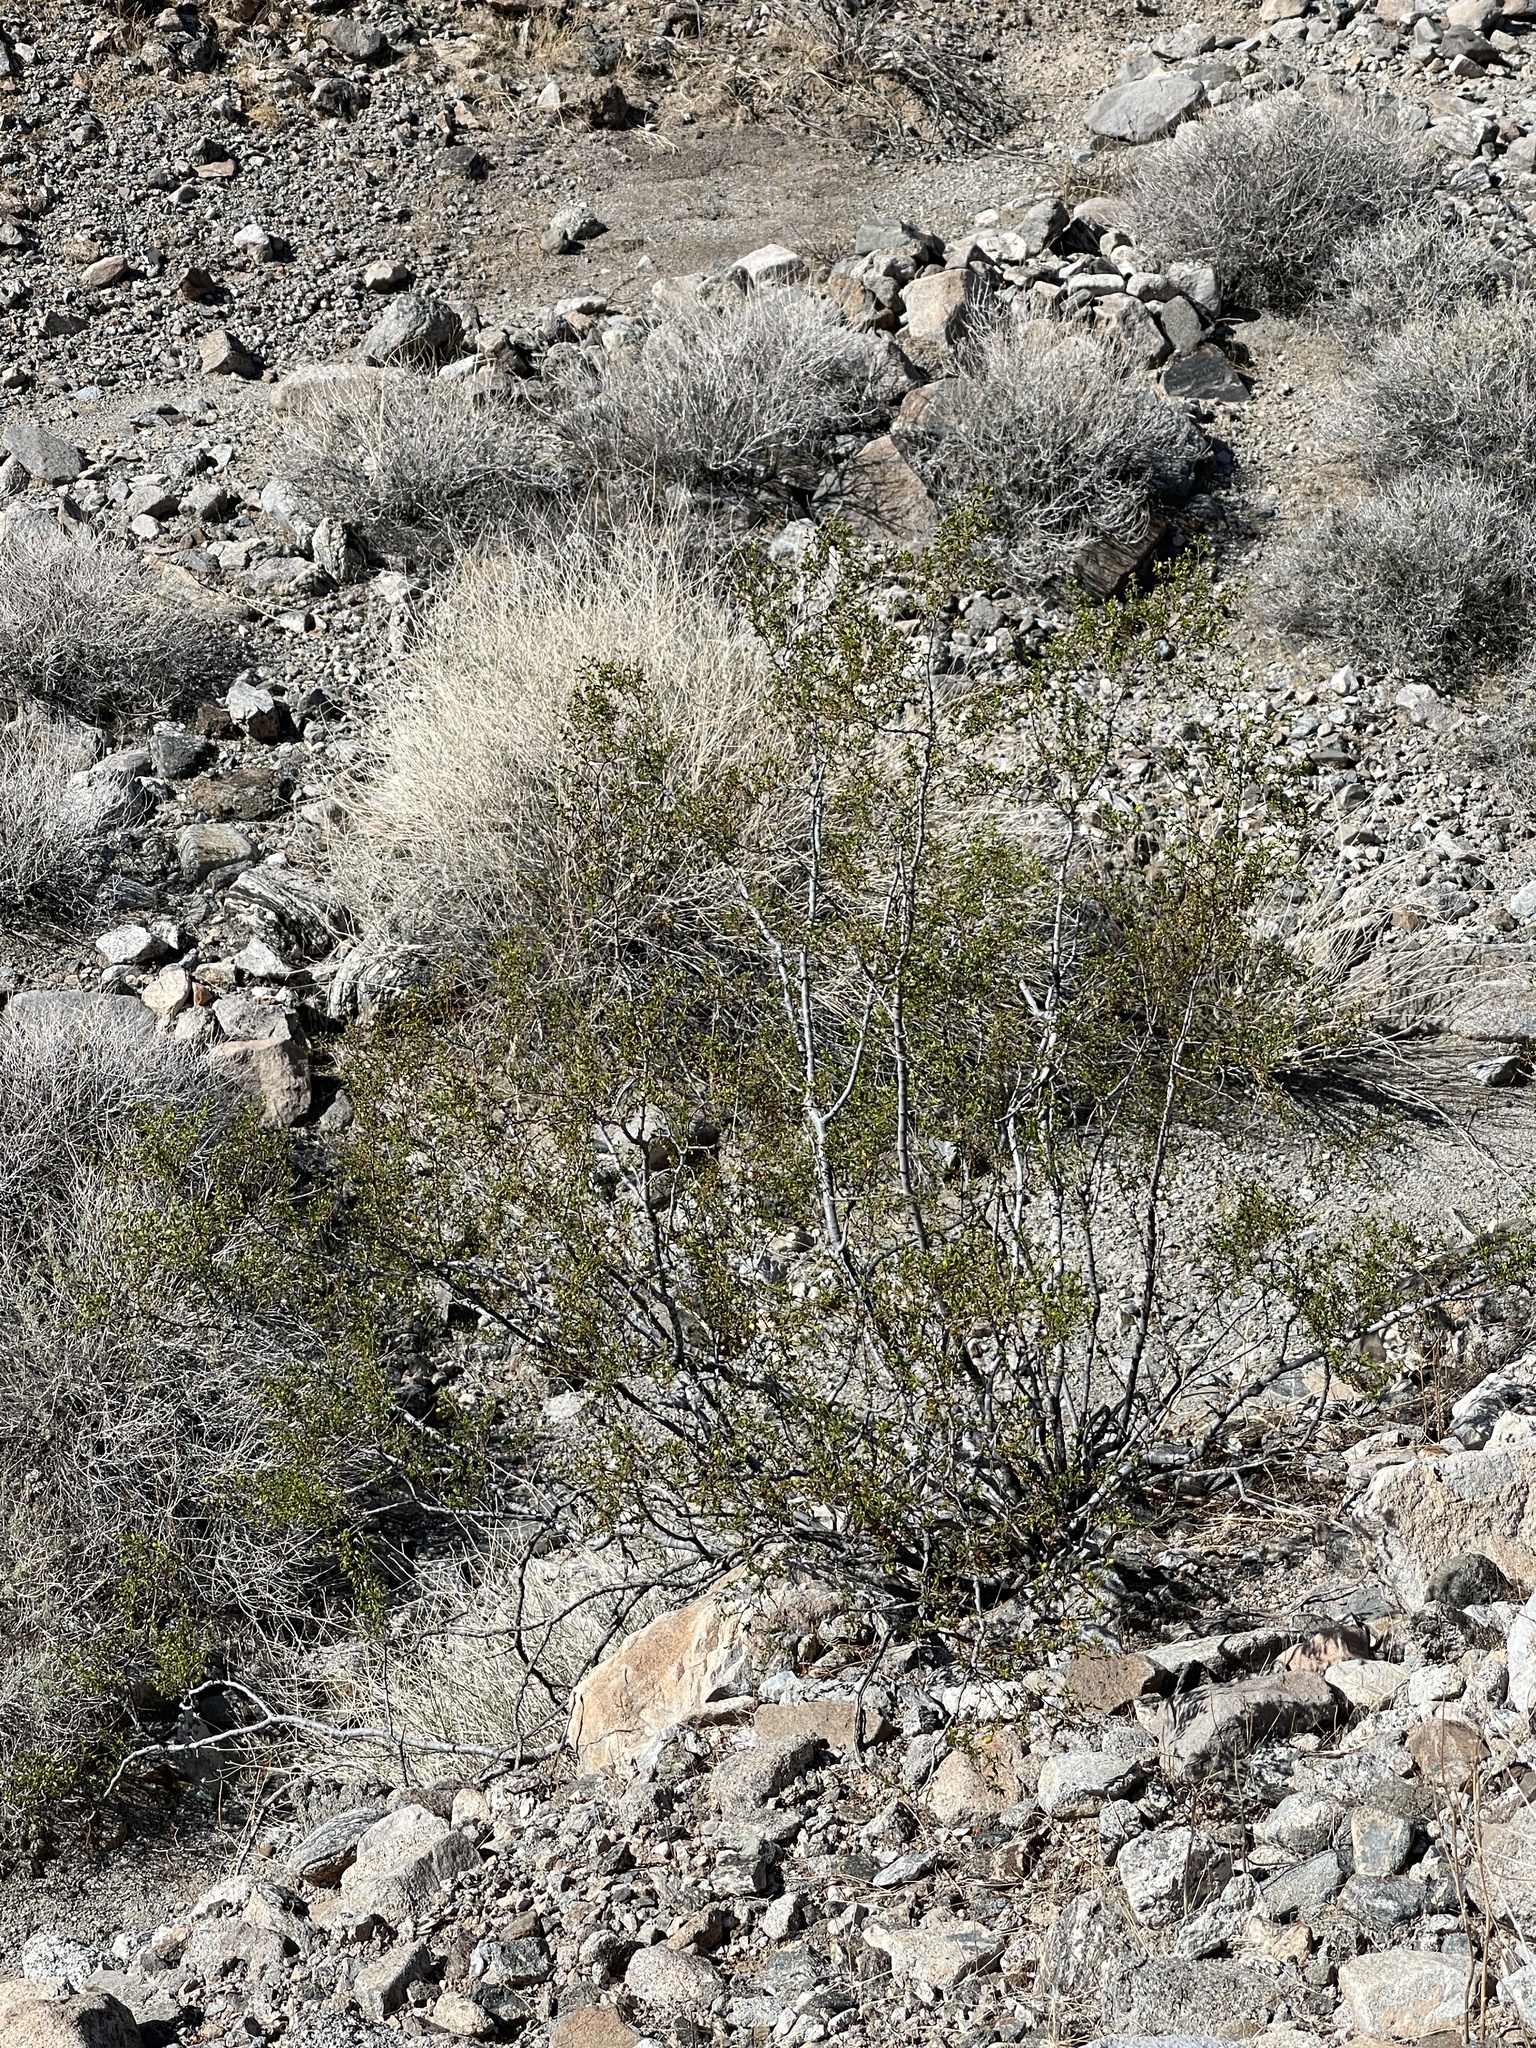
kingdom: Plantae
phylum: Tracheophyta
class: Magnoliopsida
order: Zygophyllales
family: Zygophyllaceae
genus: Larrea
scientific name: Larrea tridentata
